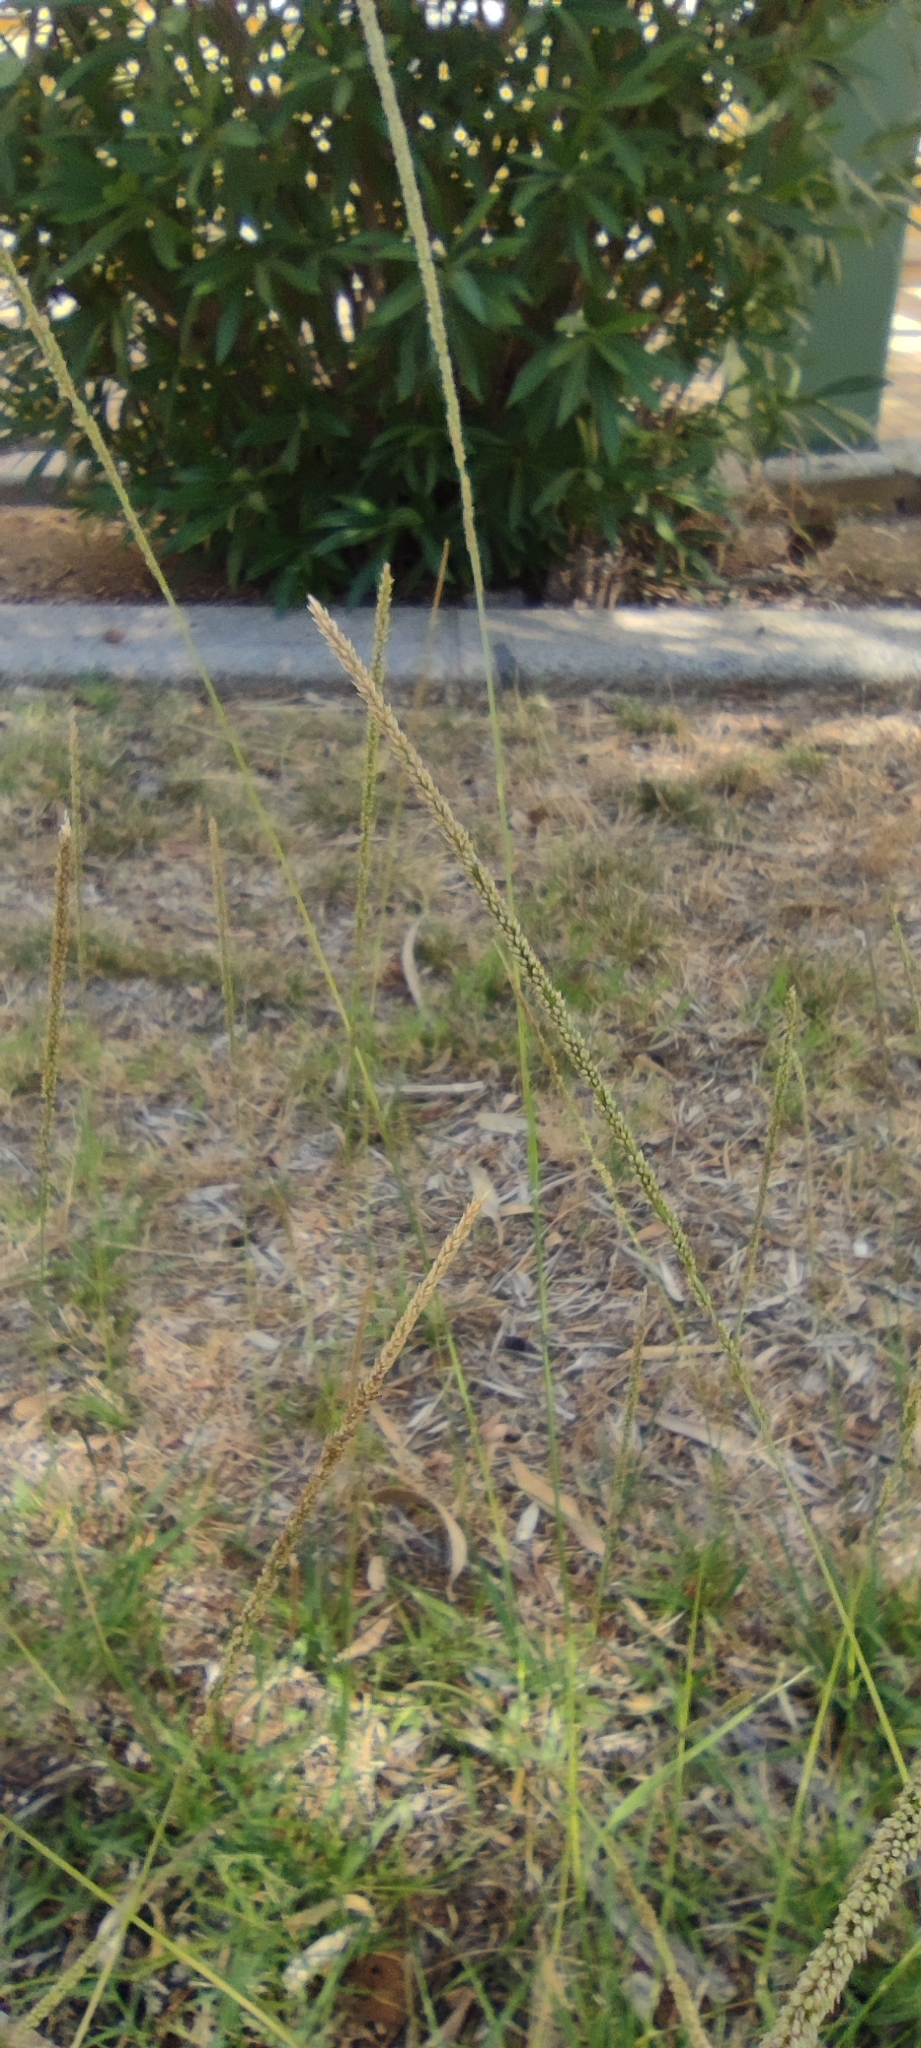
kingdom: Plantae
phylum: Tracheophyta
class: Liliopsida
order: Poales
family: Poaceae
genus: Sporobolus
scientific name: Sporobolus indicus
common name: Smut grass
